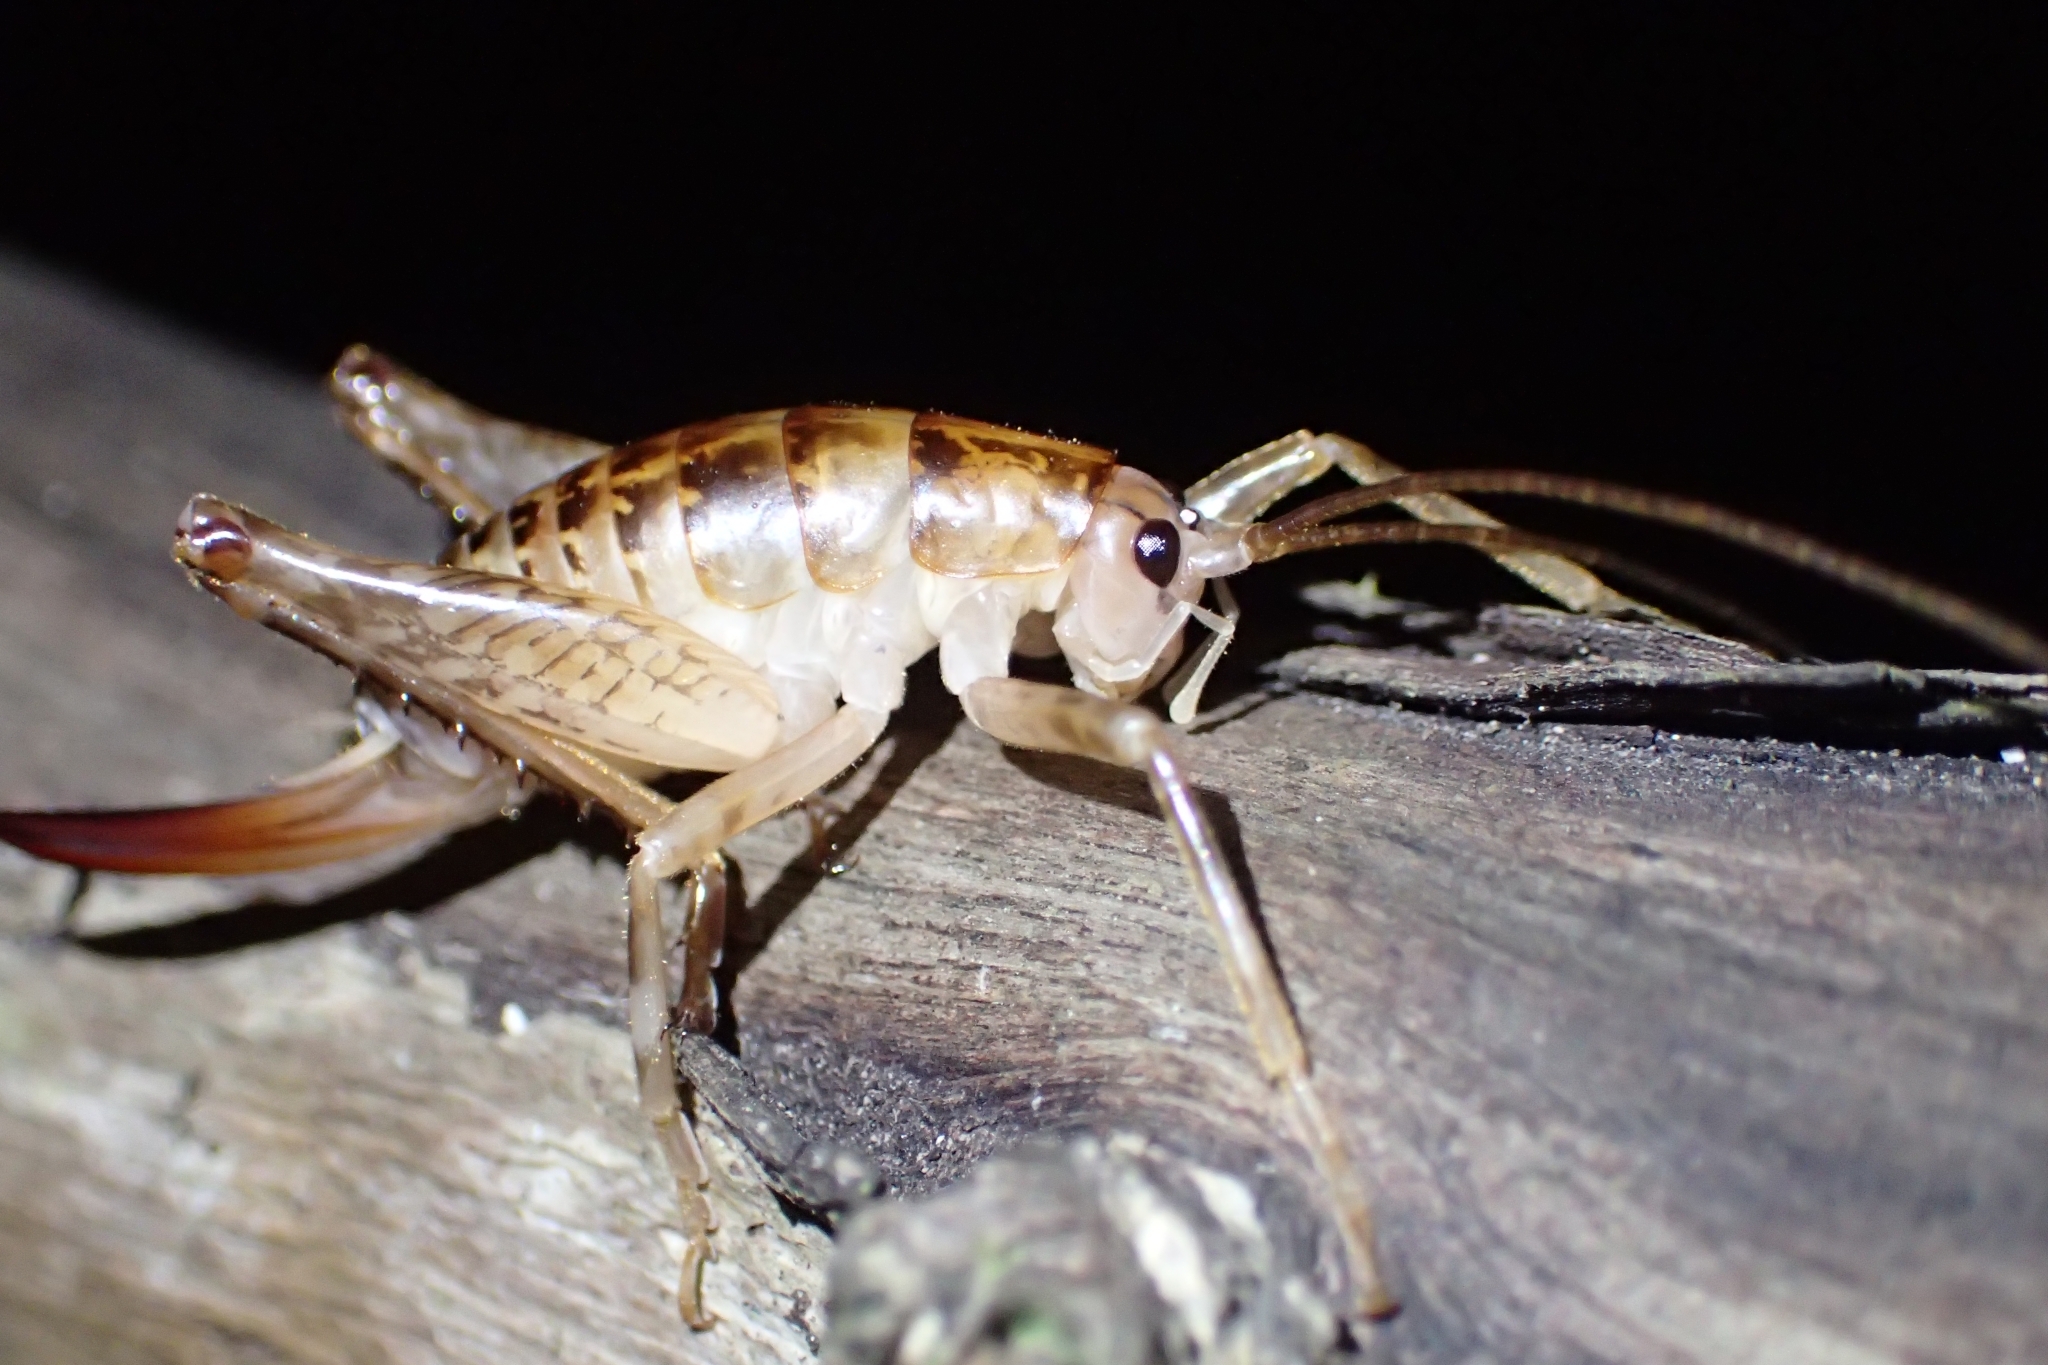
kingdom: Animalia
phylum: Arthropoda
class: Insecta
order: Orthoptera
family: Rhaphidophoridae
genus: Talitropsis
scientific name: Talitropsis sedilloti
